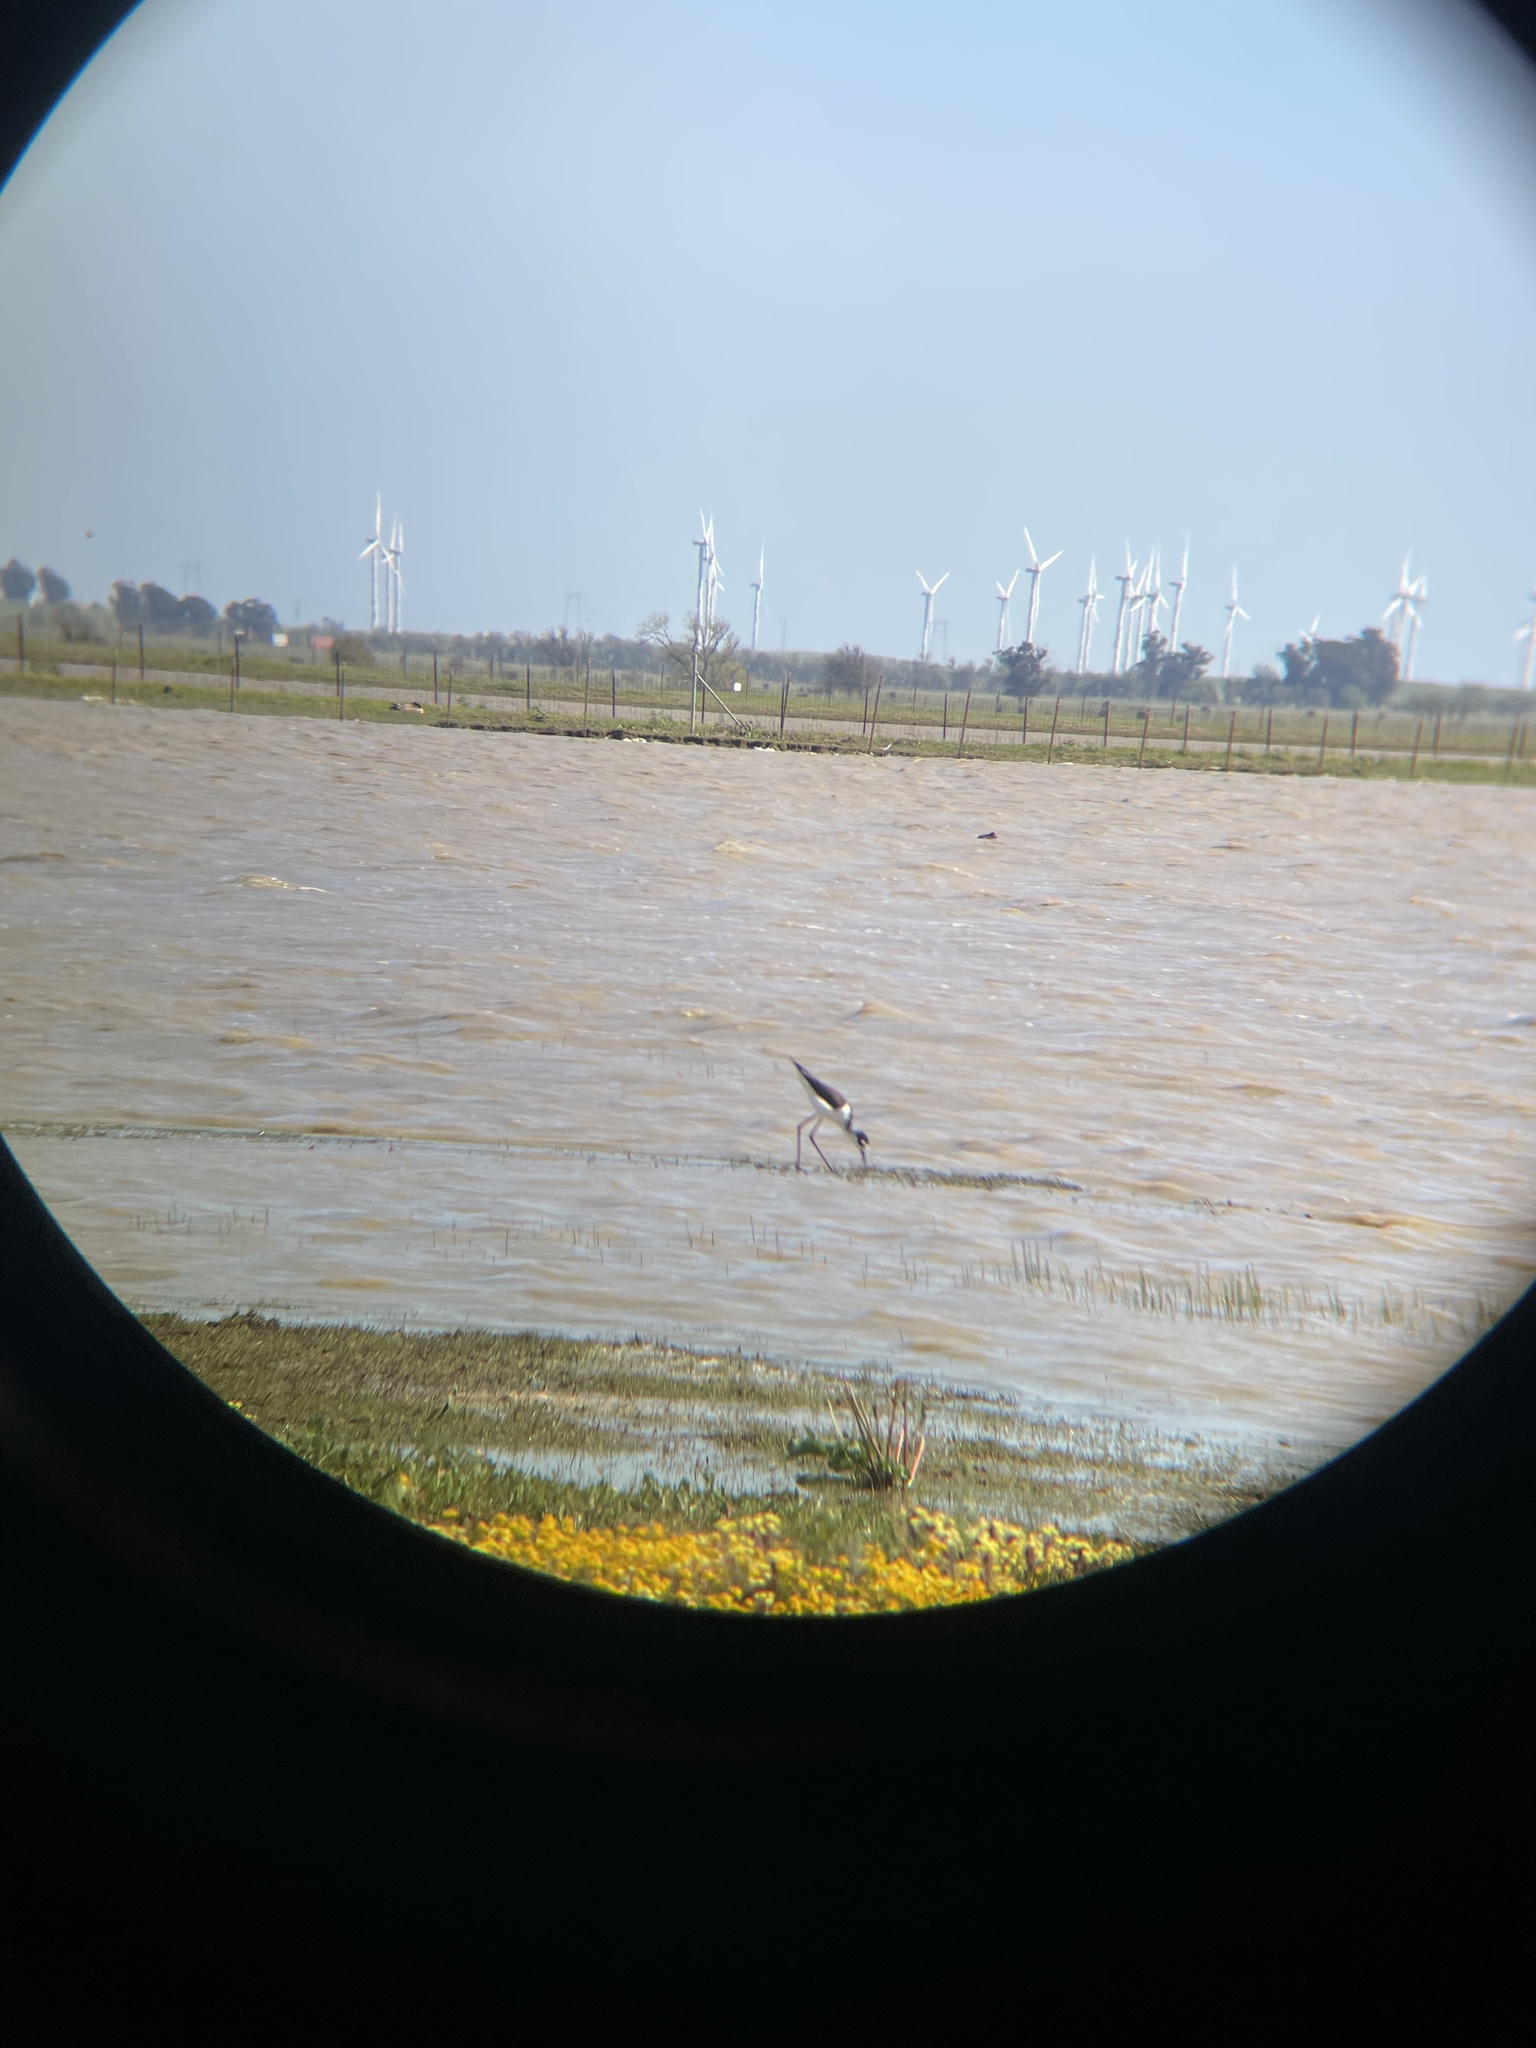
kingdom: Animalia
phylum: Chordata
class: Aves
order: Charadriiformes
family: Recurvirostridae
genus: Himantopus
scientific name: Himantopus mexicanus
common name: Black-necked stilt
